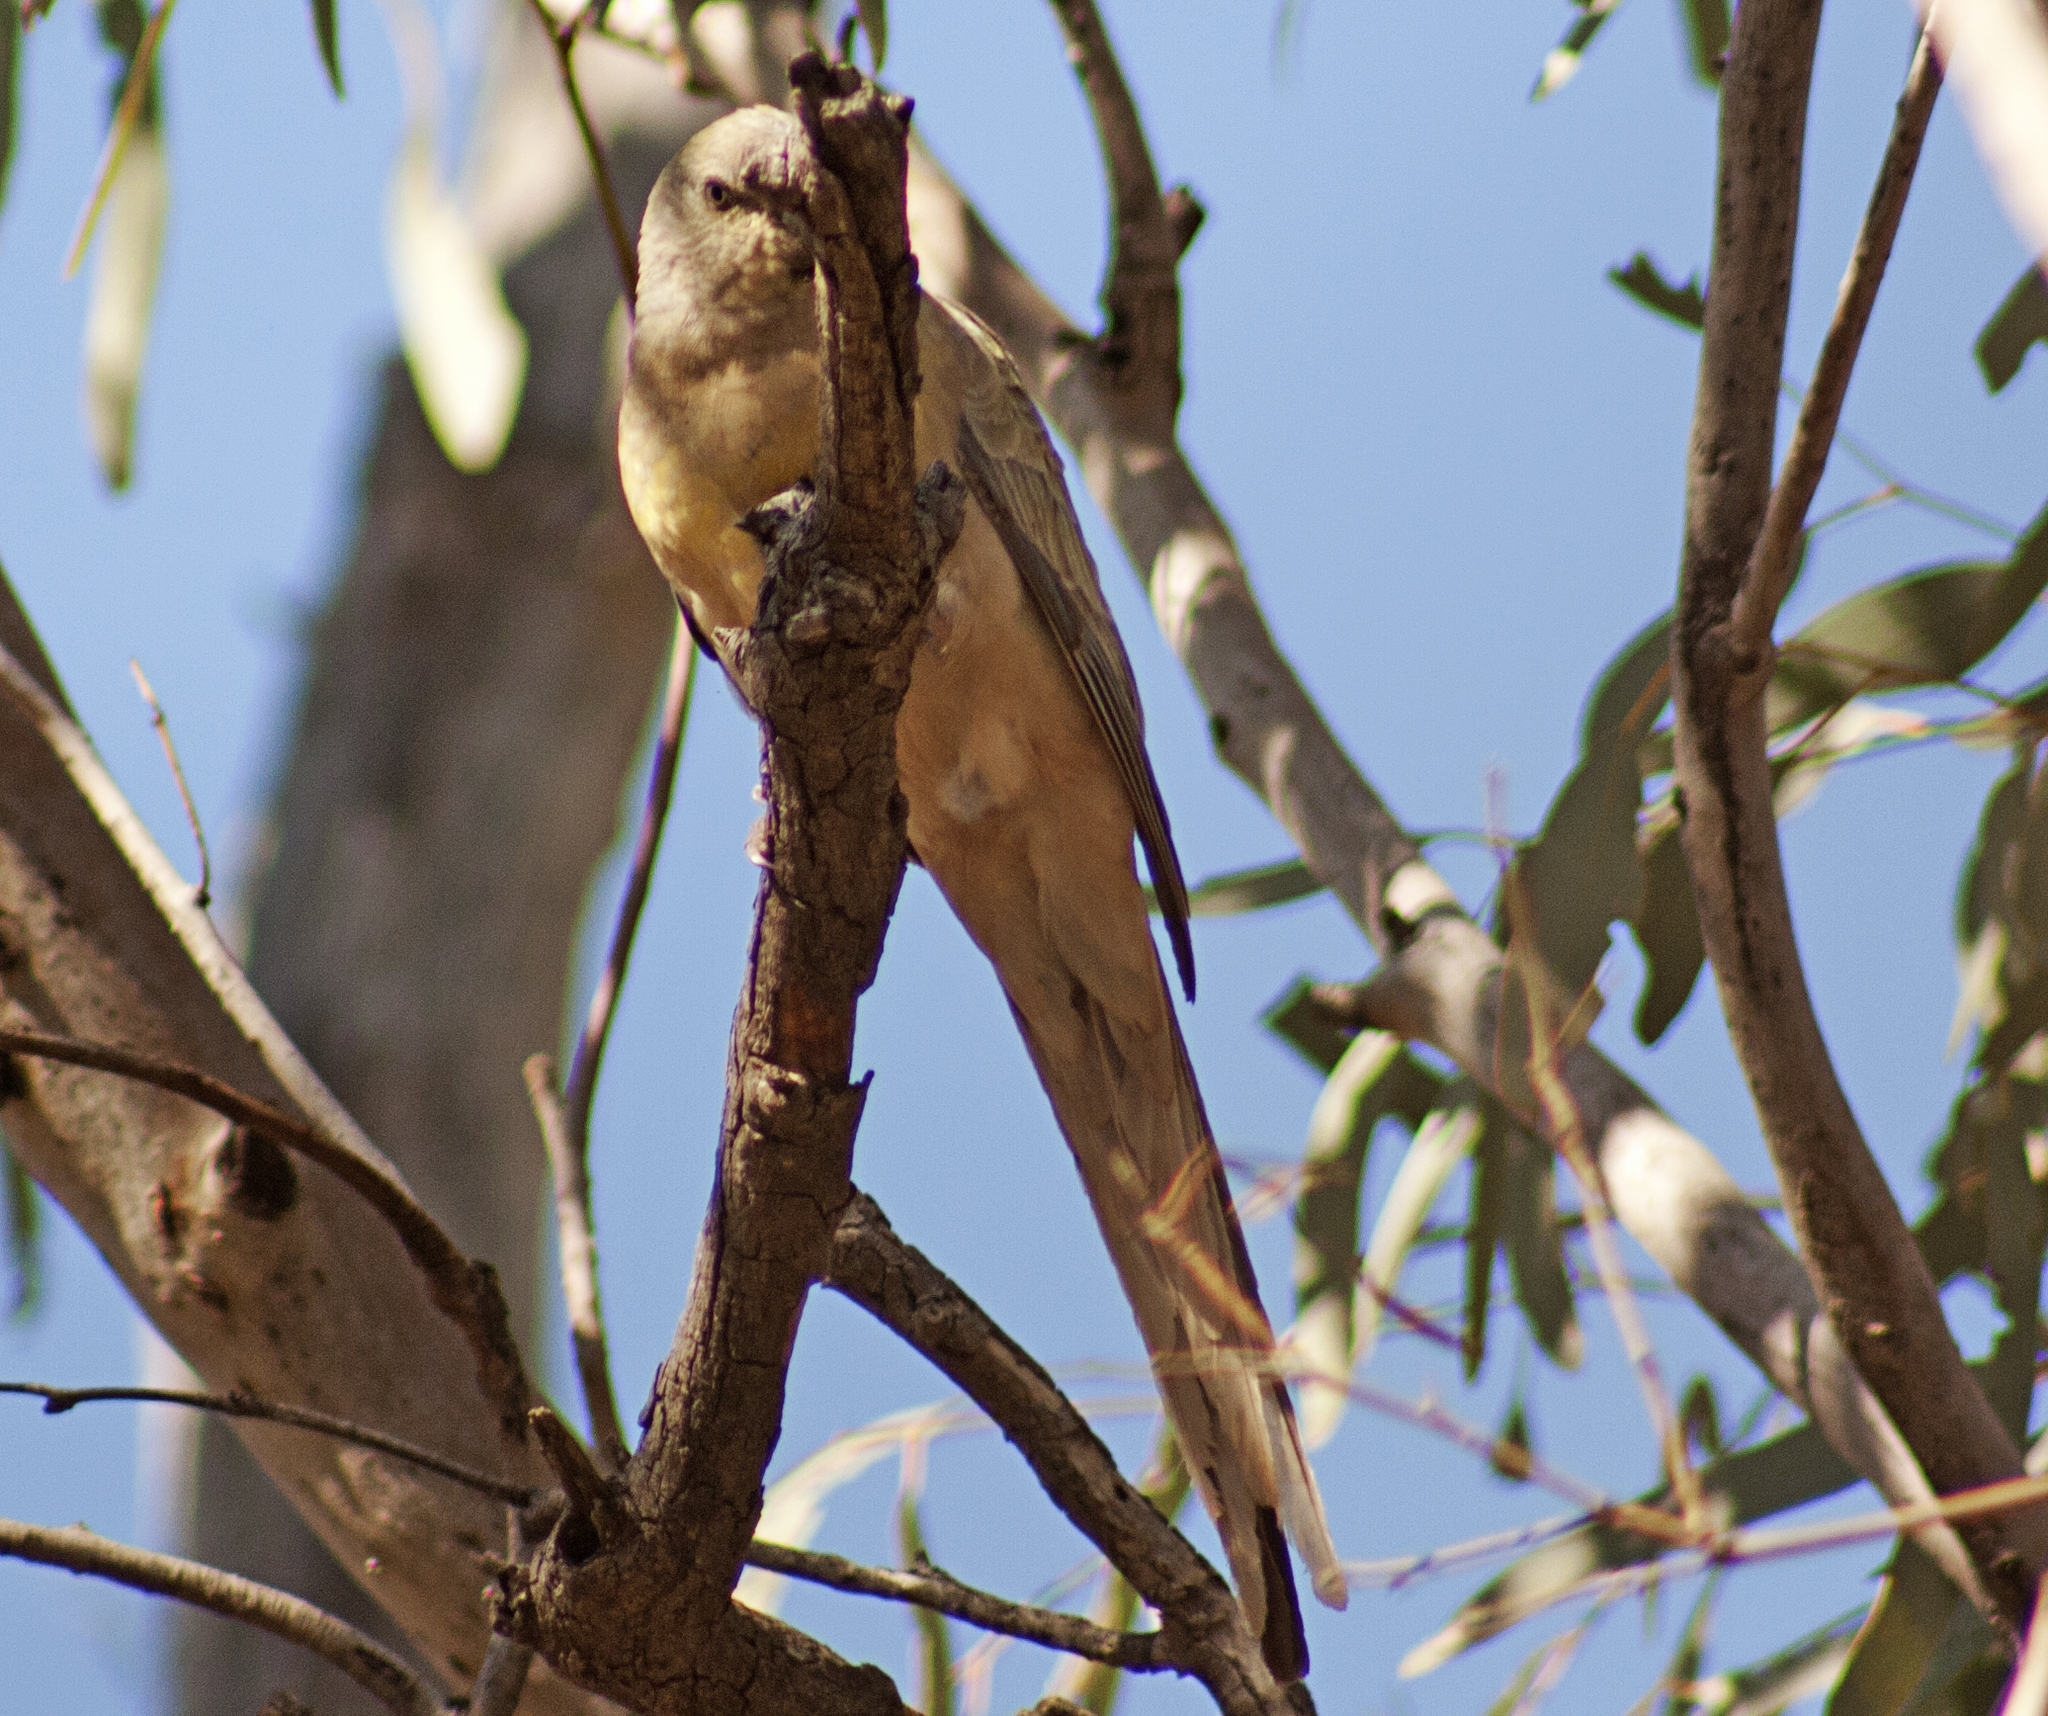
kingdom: Animalia
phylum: Chordata
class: Aves
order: Psittaciformes
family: Psittacidae
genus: Psephotus
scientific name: Psephotus haematonotus
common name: Red-rumped parrot
